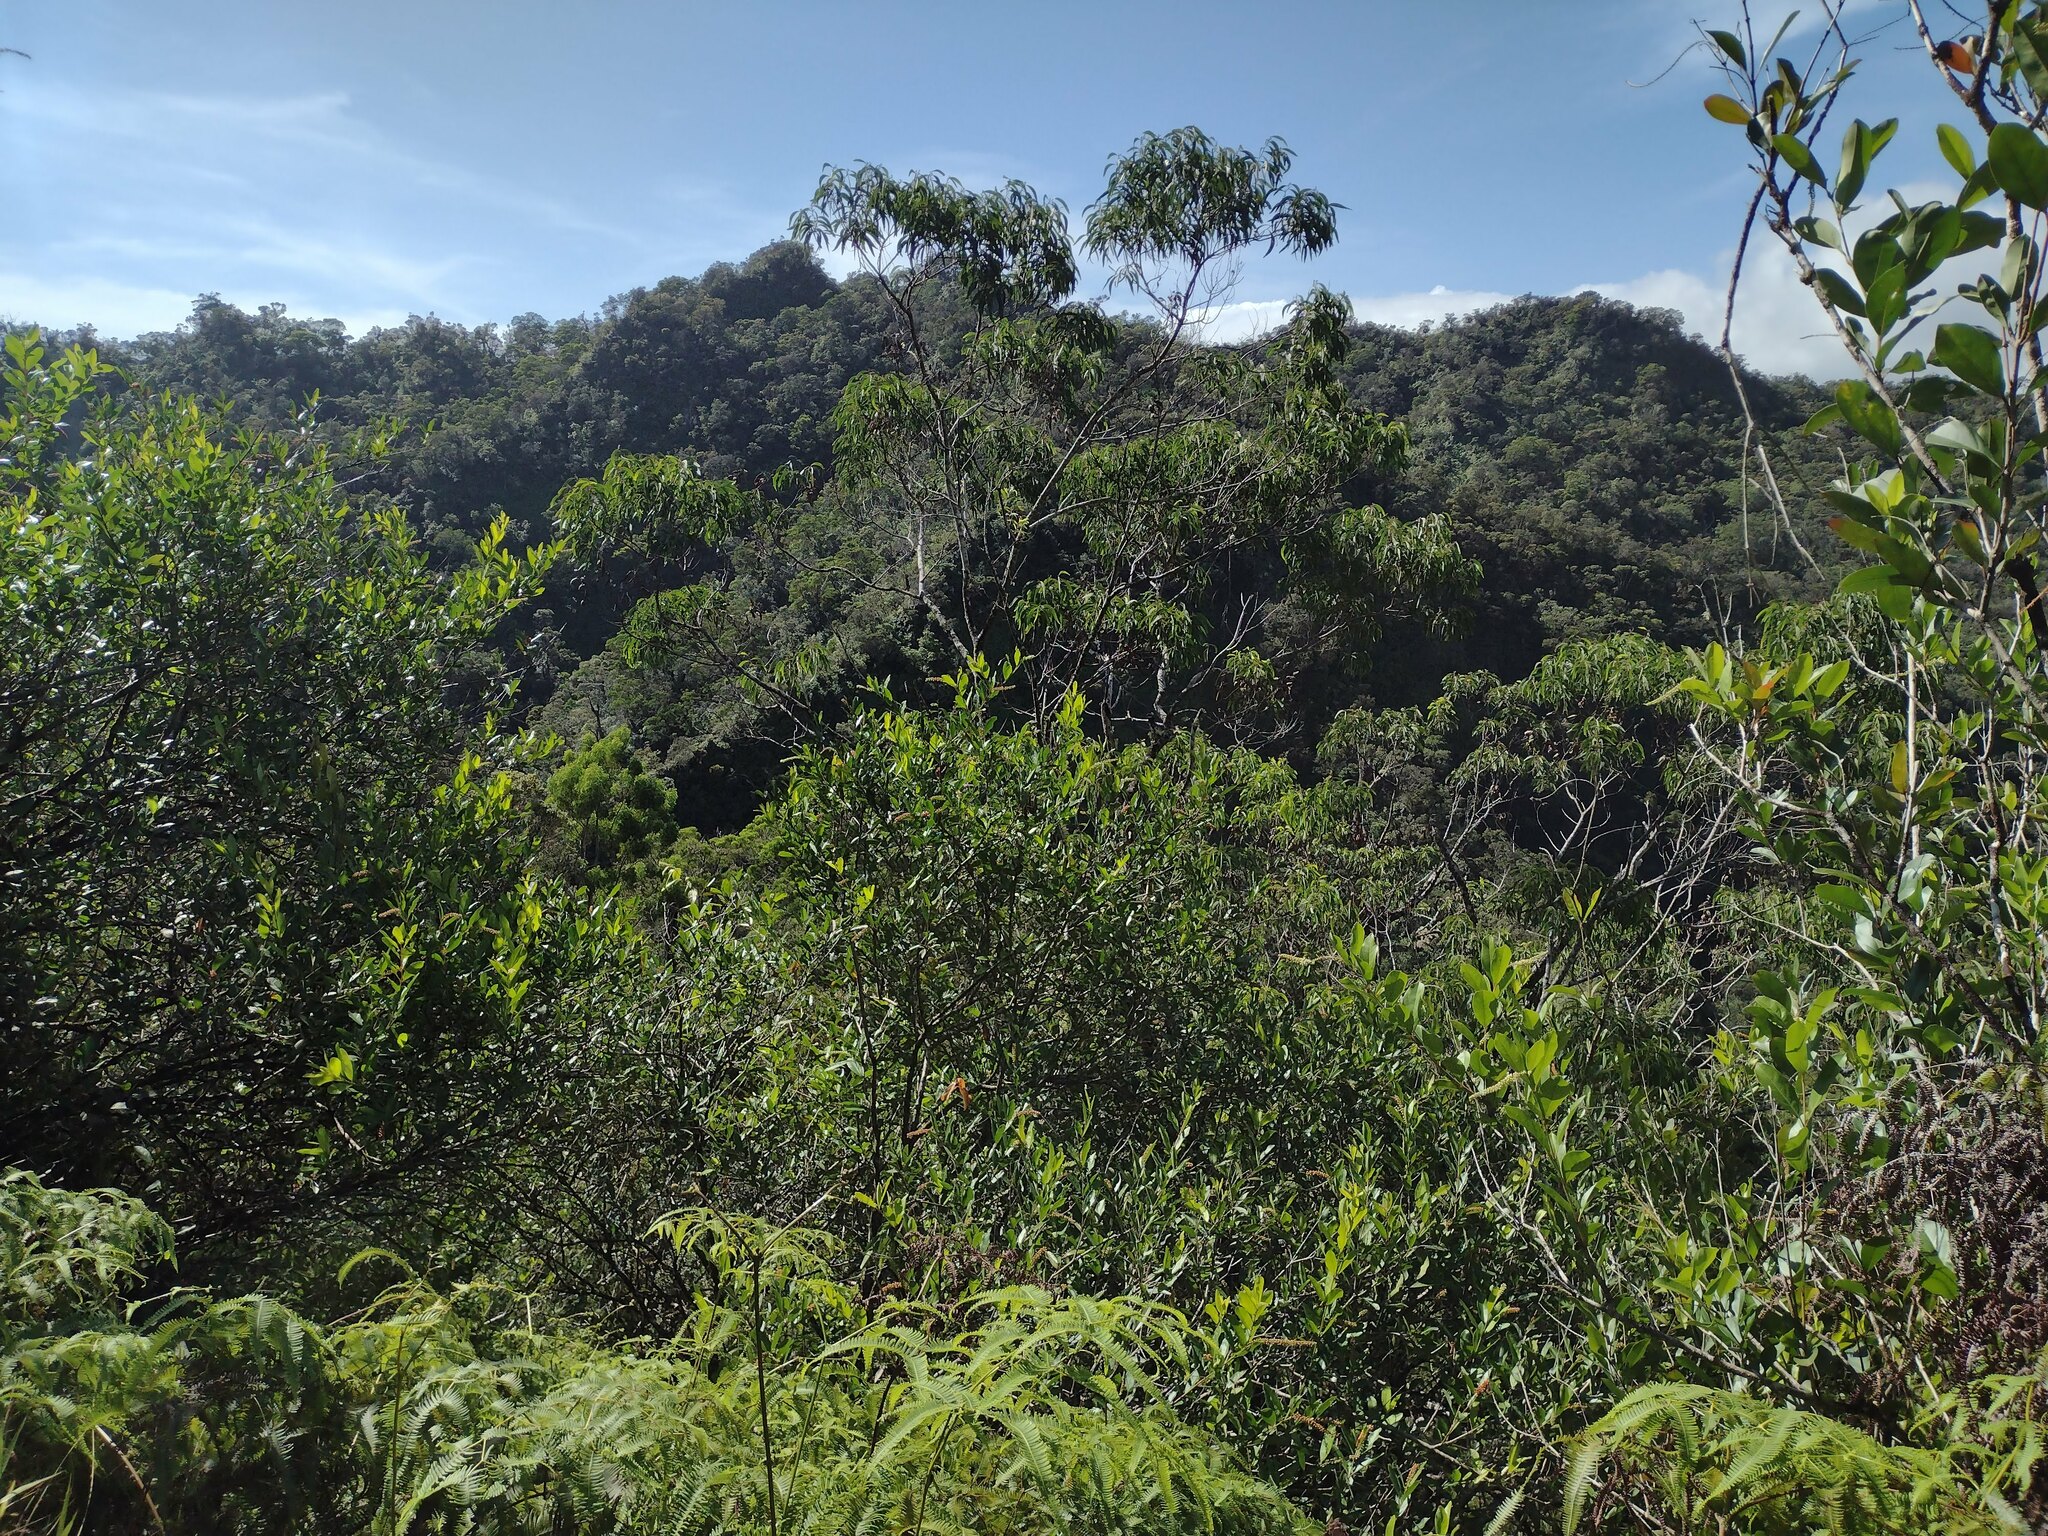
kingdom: Plantae
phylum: Tracheophyta
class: Magnoliopsida
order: Lamiales
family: Verbenaceae
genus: Citharexylum
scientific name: Citharexylum caudatum
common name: Fiddlewood
